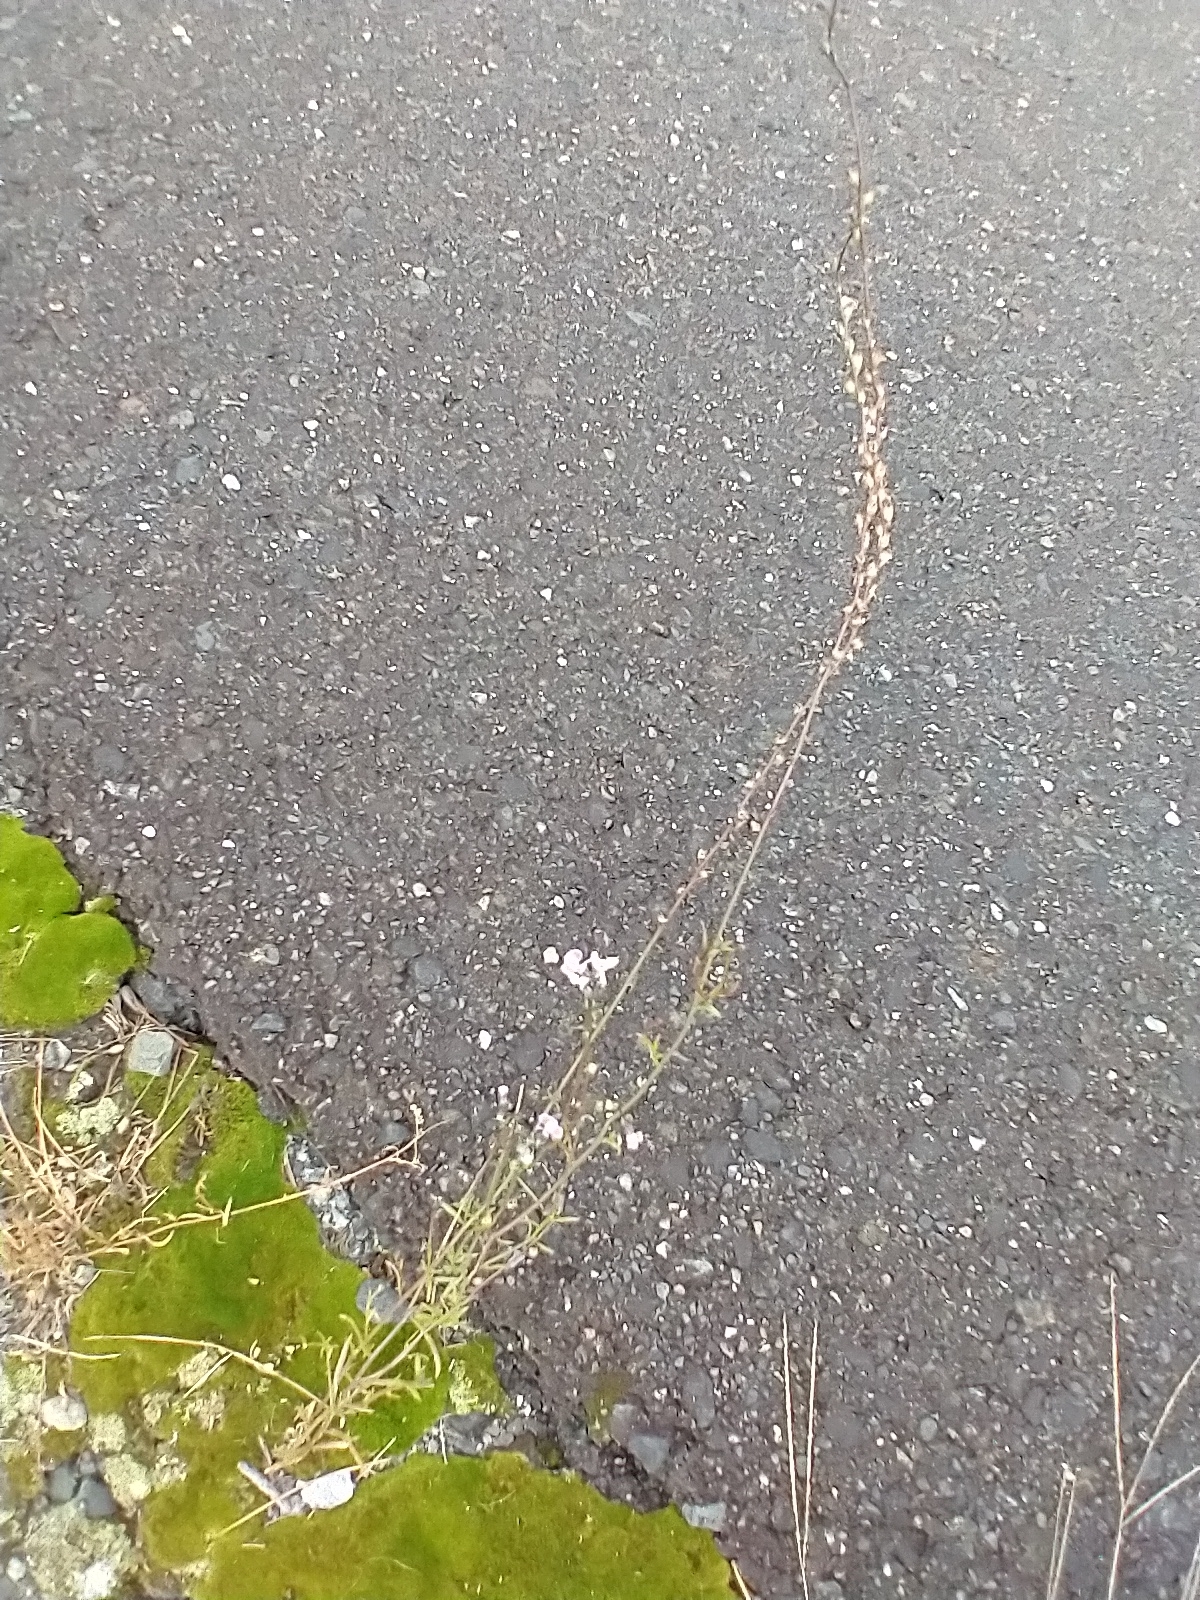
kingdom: Plantae
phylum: Tracheophyta
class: Magnoliopsida
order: Lamiales
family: Plantaginaceae
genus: Nuttallanthus
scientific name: Nuttallanthus canadensis
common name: Blue toadflax
